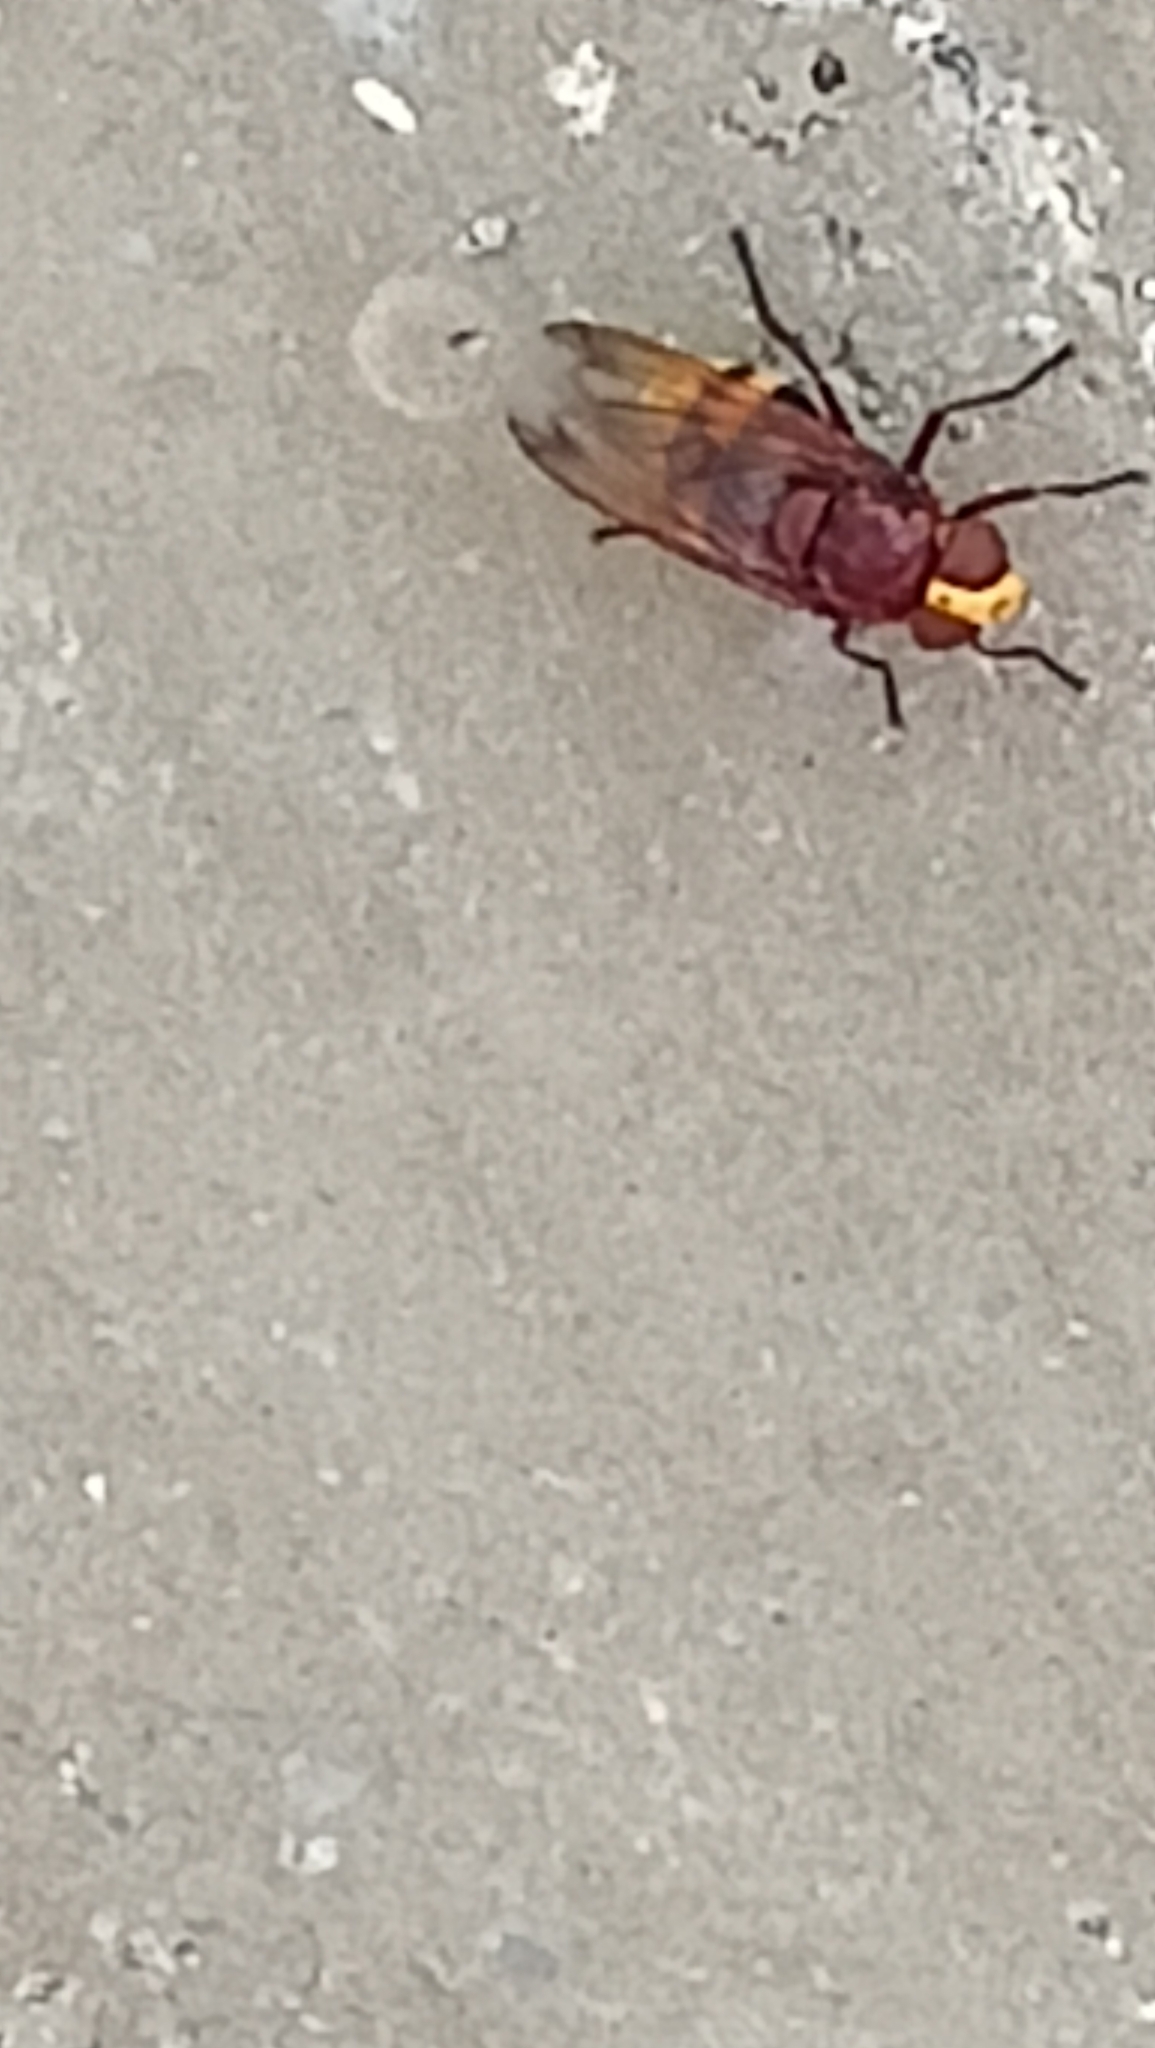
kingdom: Animalia
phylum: Arthropoda
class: Insecta
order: Diptera
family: Syrphidae
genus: Volucella
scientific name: Volucella zonaria
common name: Hornet hoverfly
